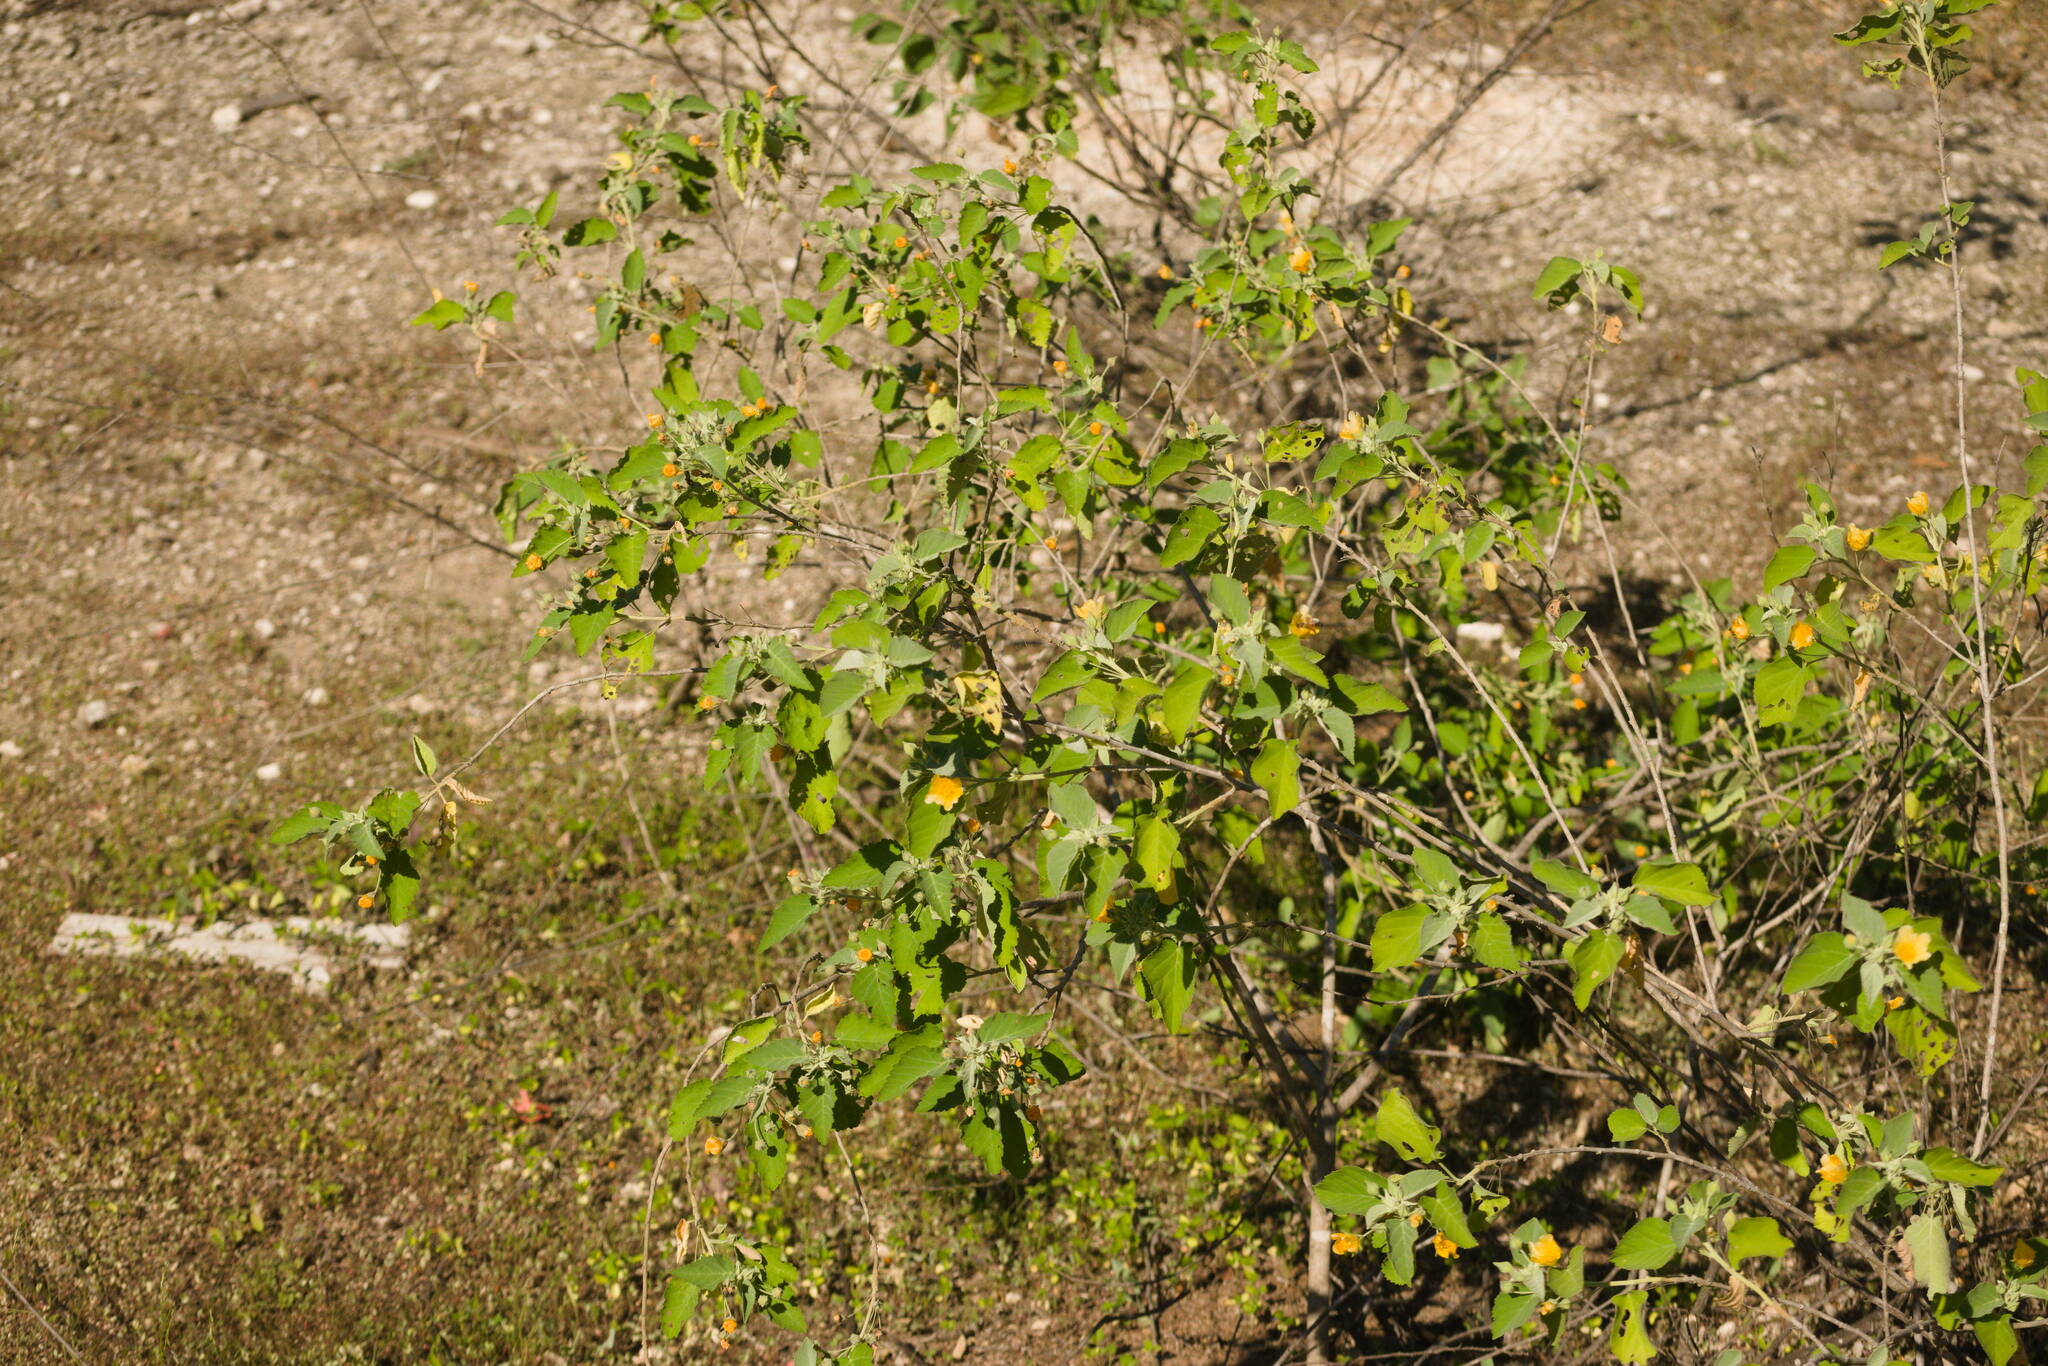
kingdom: Plantae
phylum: Tracheophyta
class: Magnoliopsida
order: Malvales
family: Malvaceae
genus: Sida
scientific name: Sida fallax
